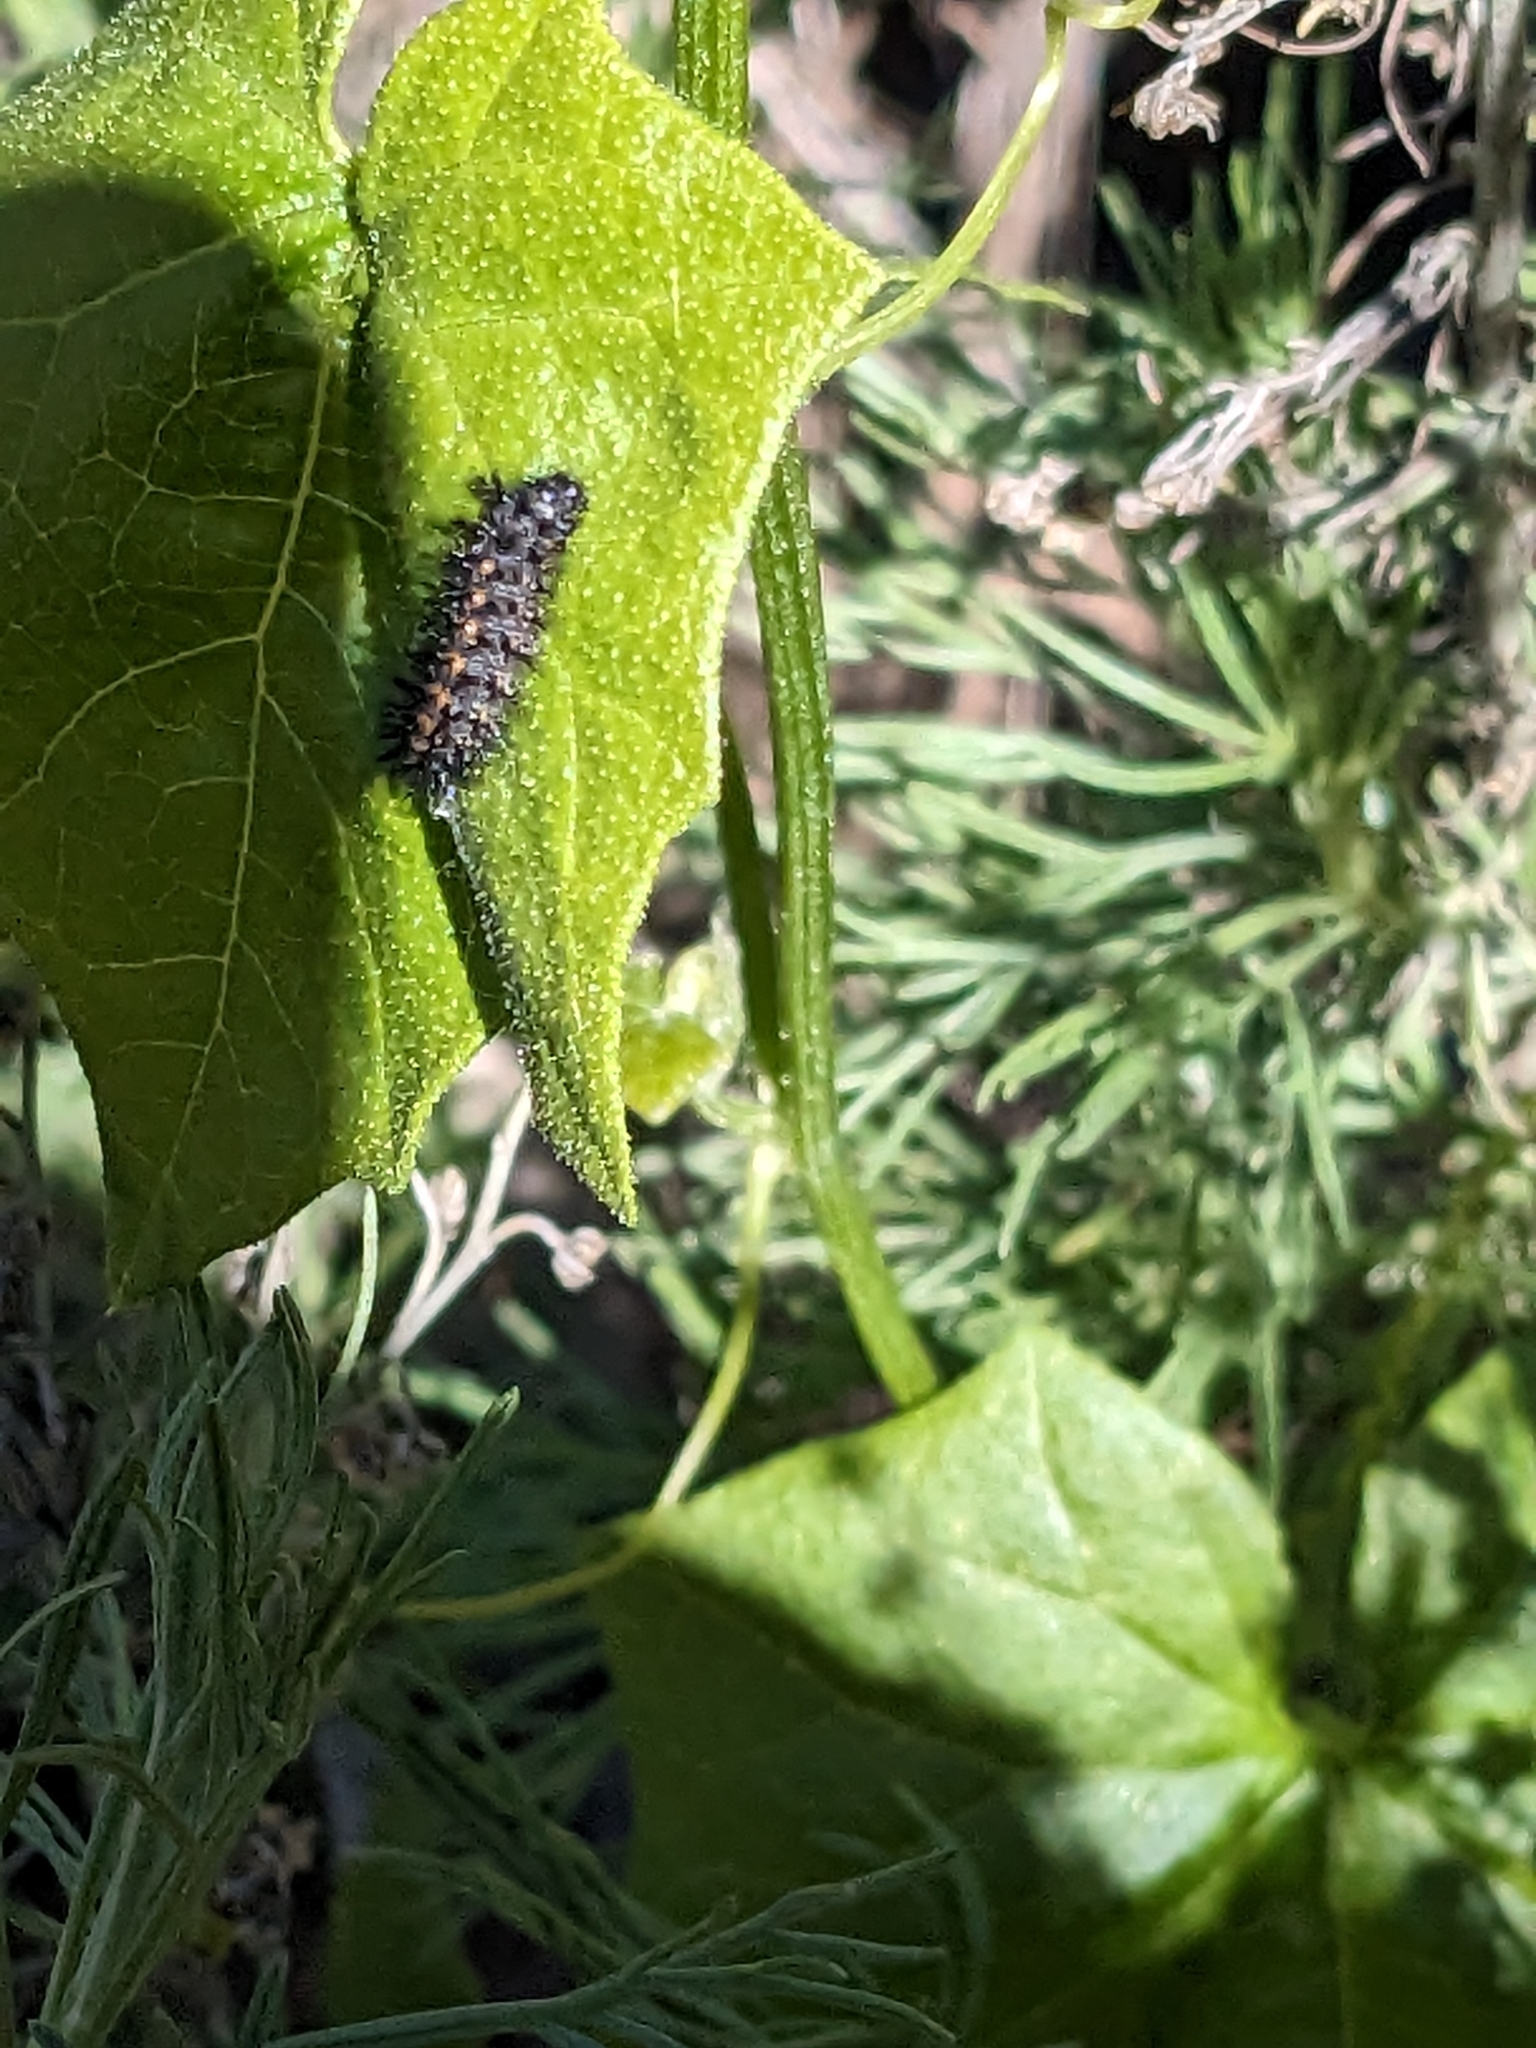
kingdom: Animalia
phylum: Arthropoda
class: Insecta
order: Lepidoptera
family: Nymphalidae
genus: Occidryas
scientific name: Occidryas chalcedona
